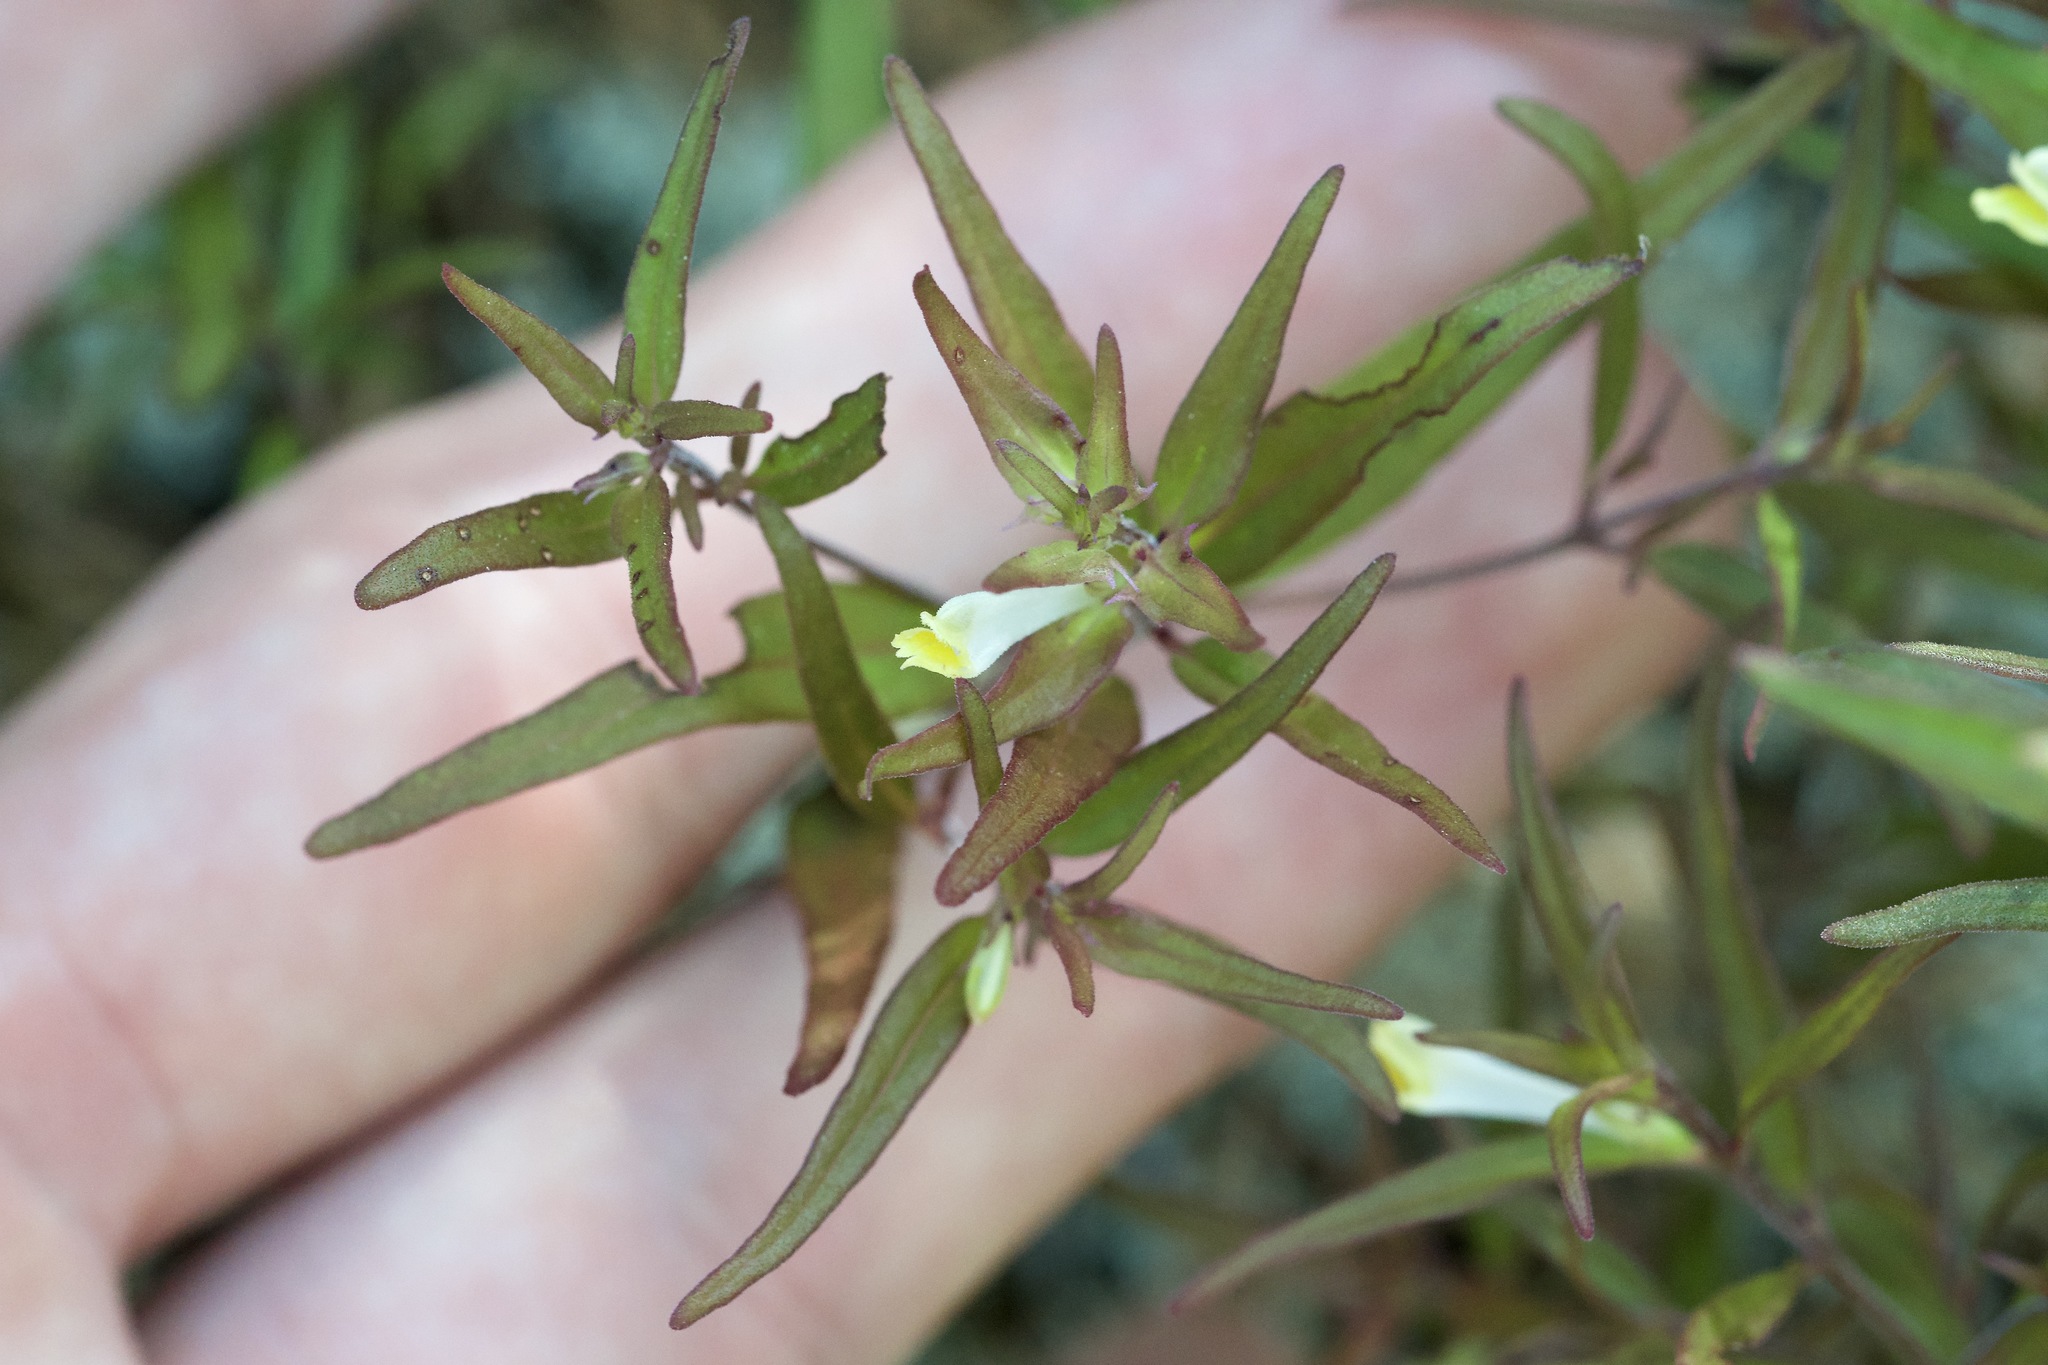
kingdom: Plantae
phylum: Tracheophyta
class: Magnoliopsida
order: Lamiales
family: Orobanchaceae
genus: Melampyrum
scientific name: Melampyrum lineare
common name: American cow-wheat
